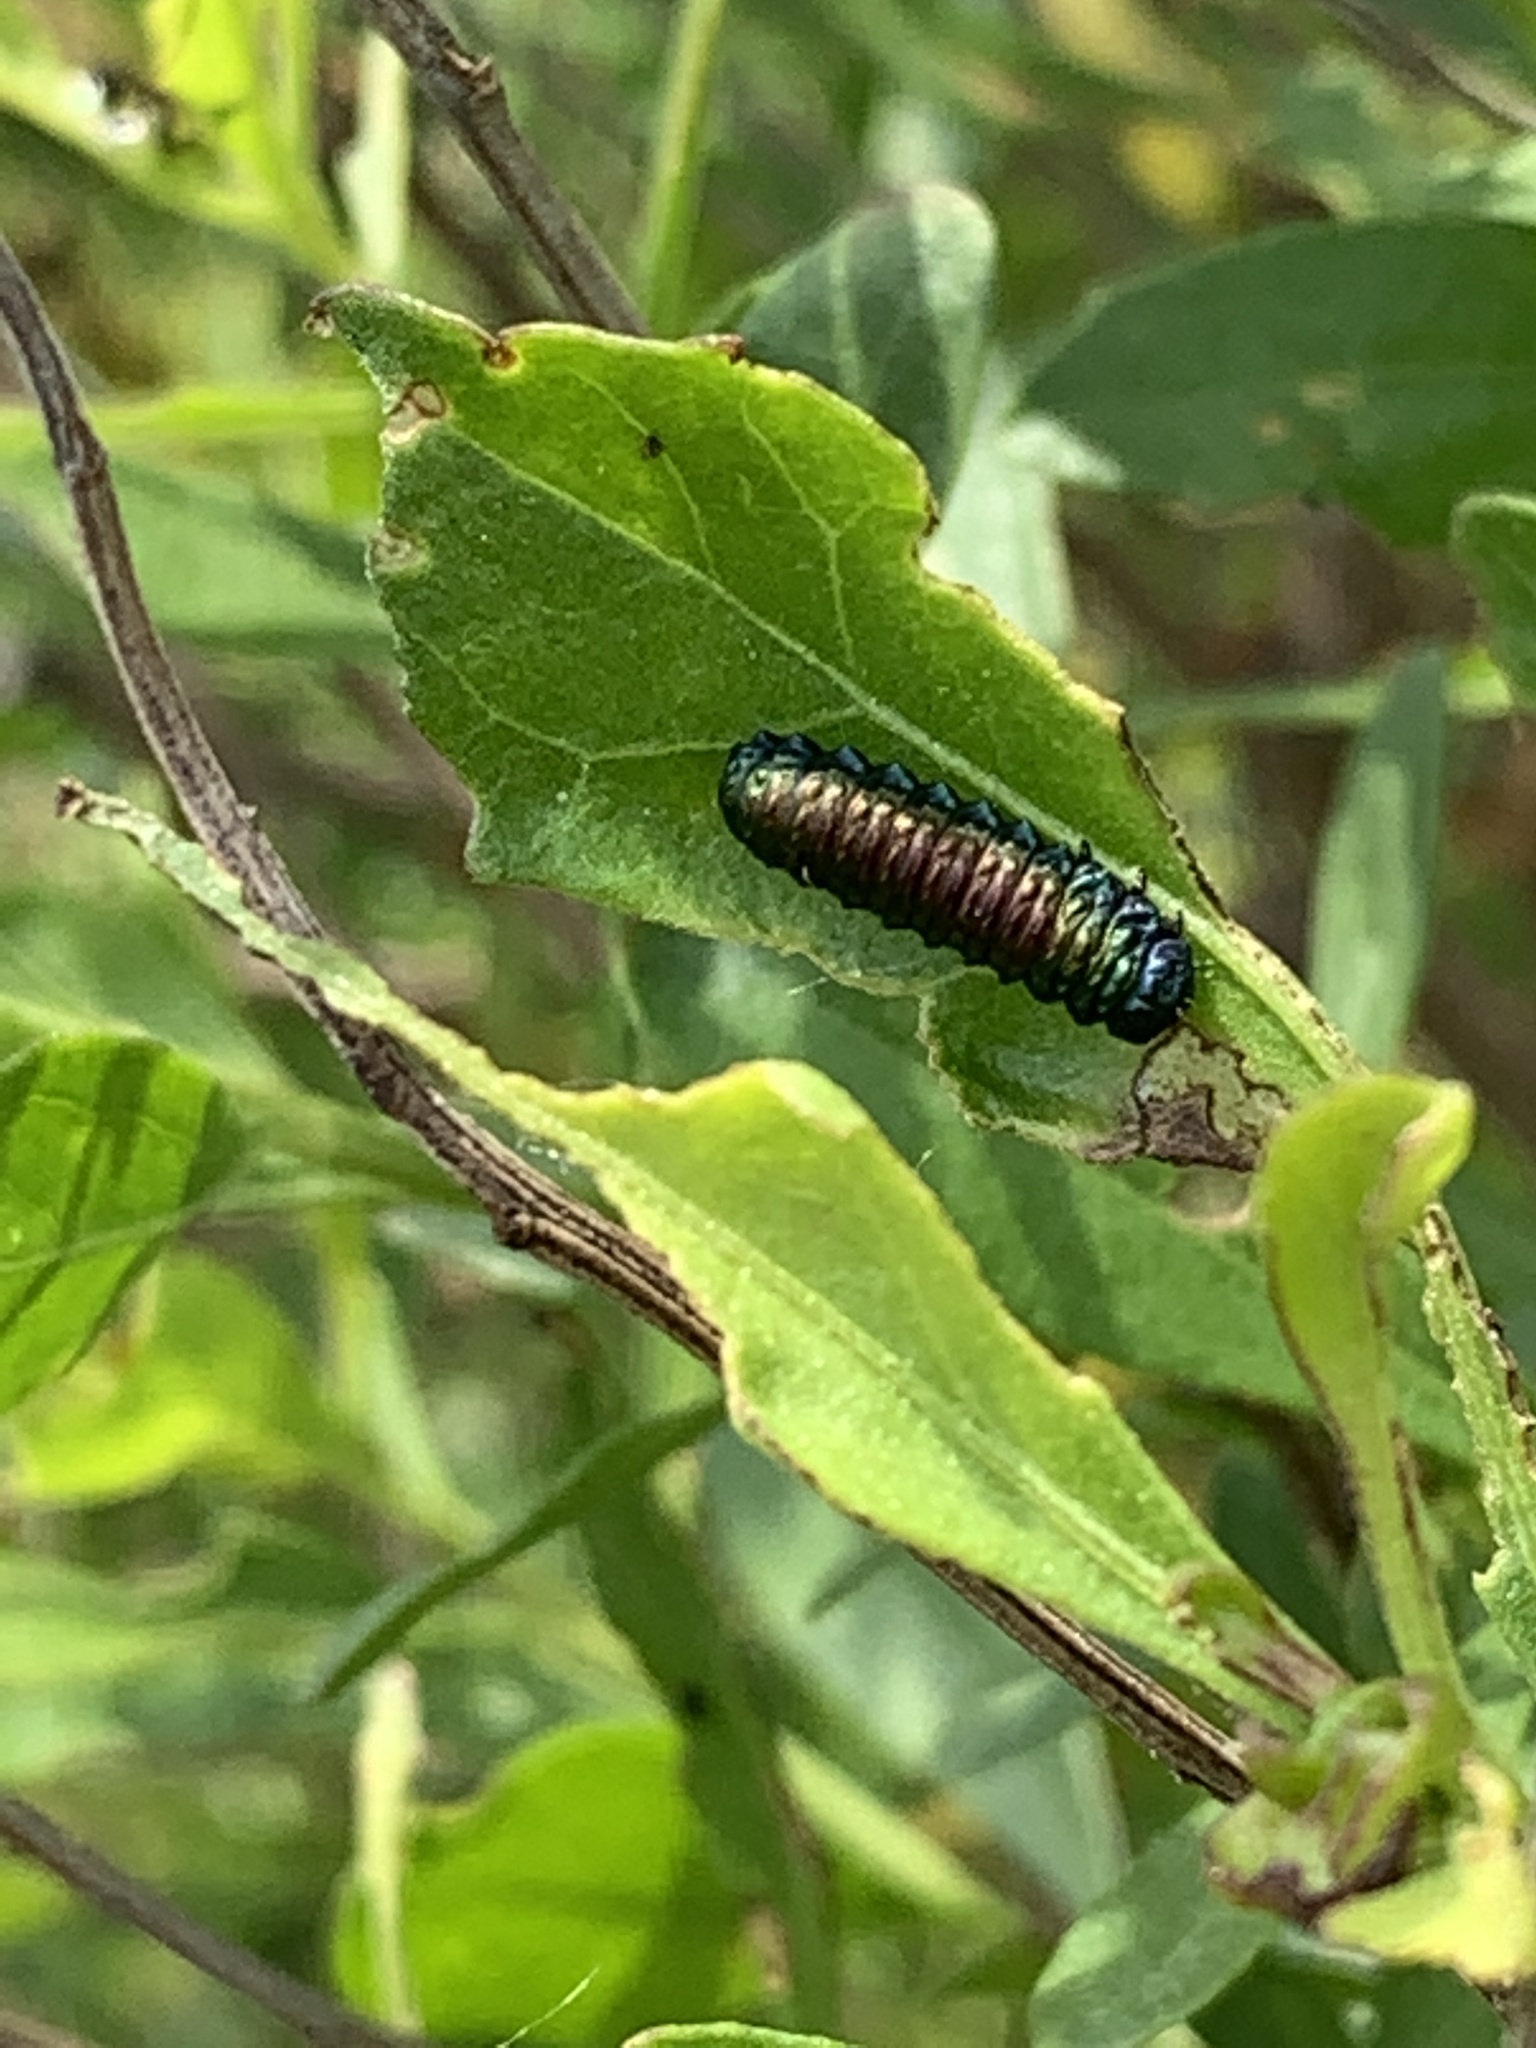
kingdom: Animalia
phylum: Arthropoda
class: Insecta
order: Coleoptera
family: Chrysomelidae
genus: Trirhabda
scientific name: Trirhabda bacharidis
